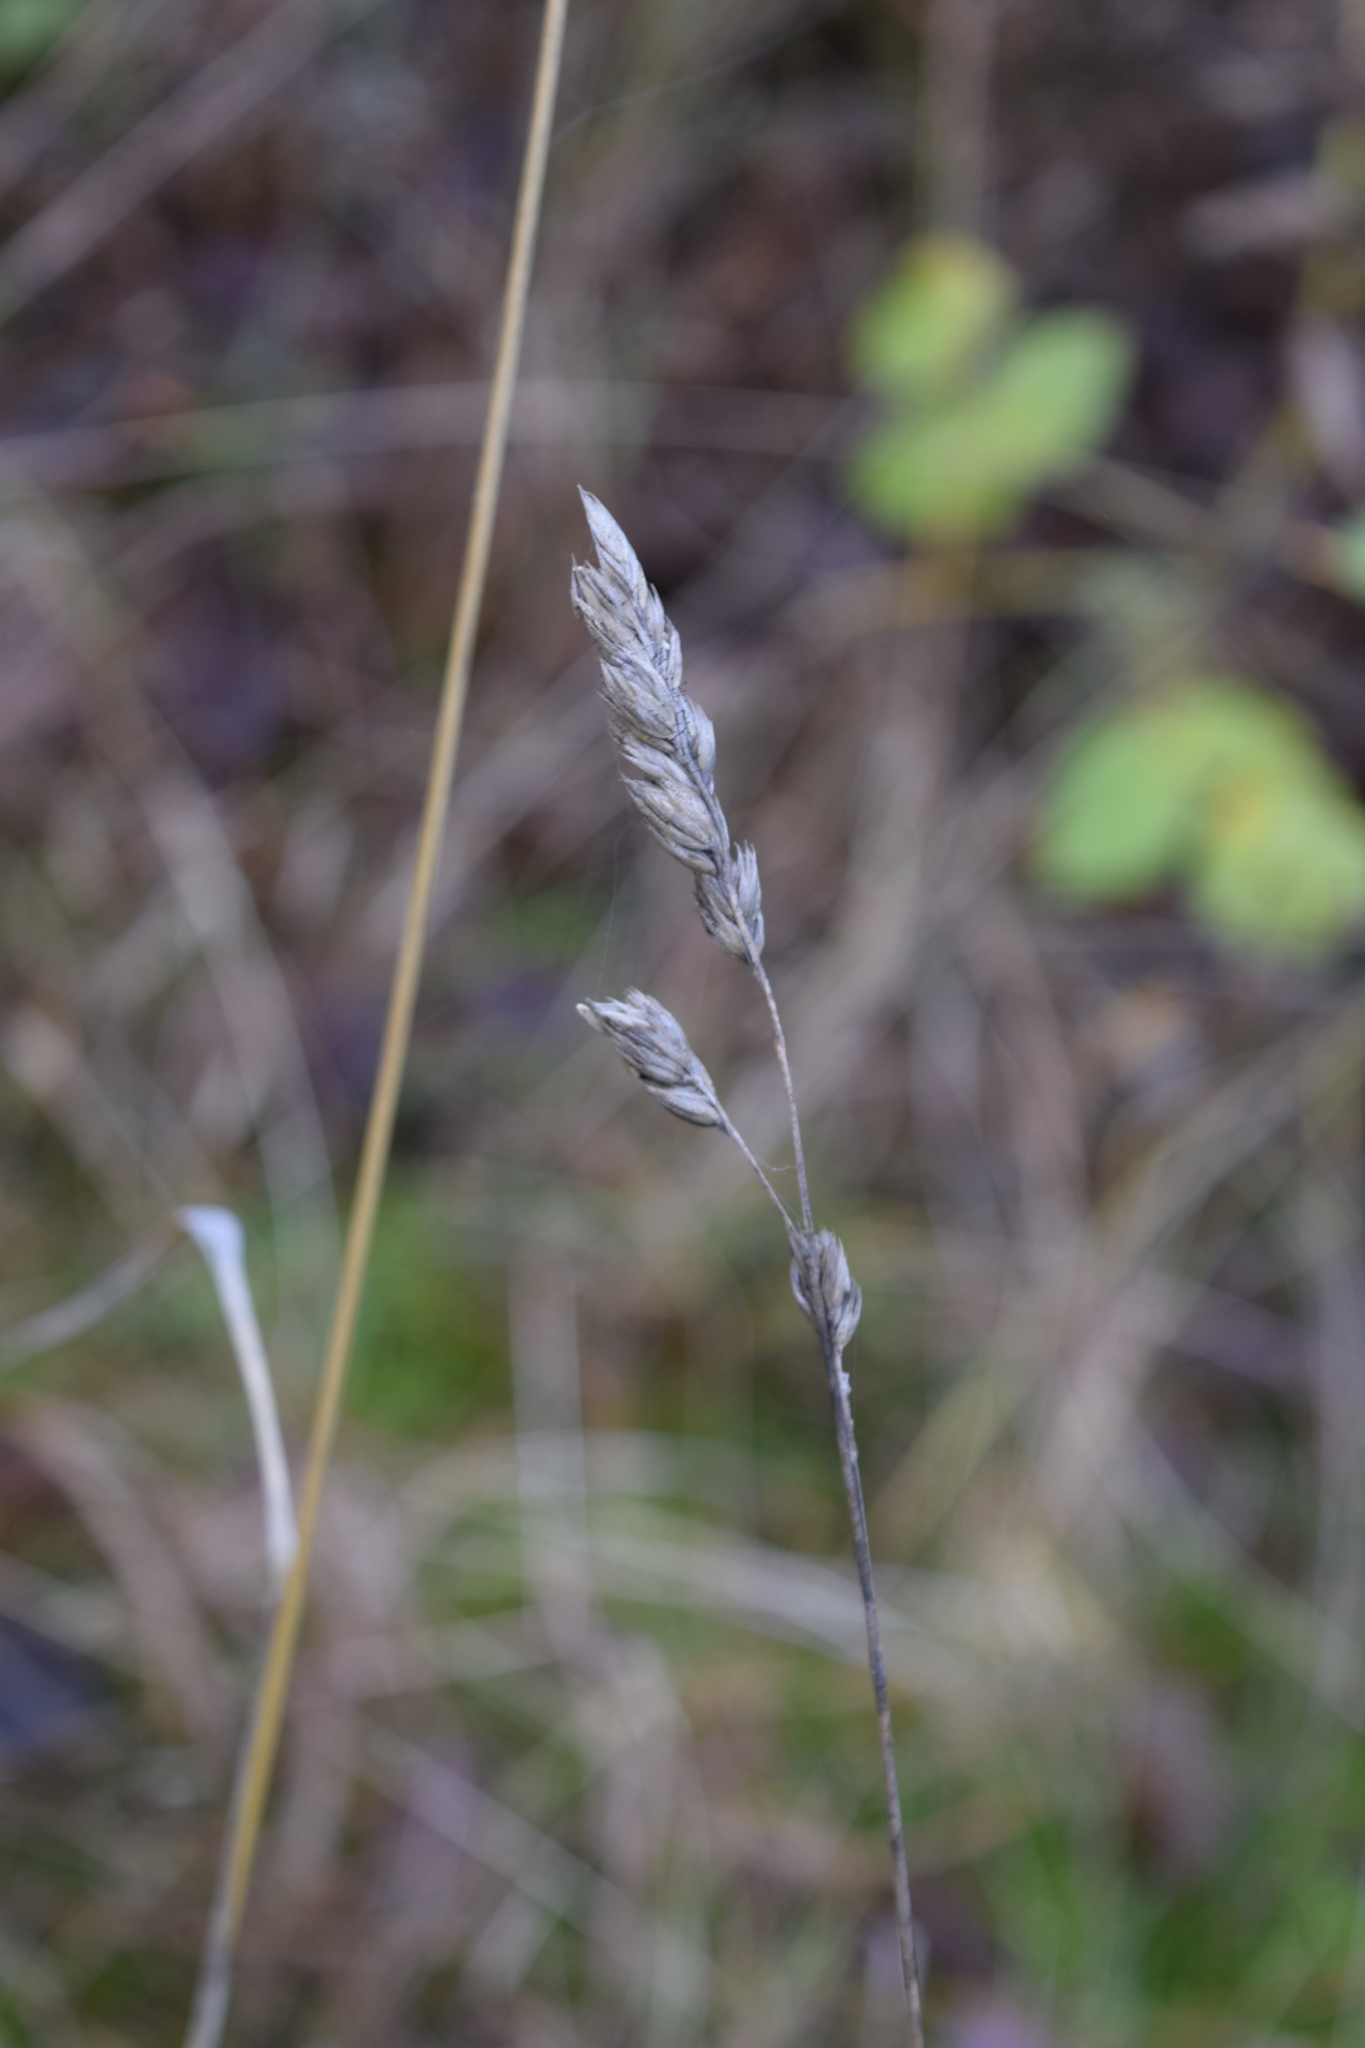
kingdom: Plantae
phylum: Tracheophyta
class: Liliopsida
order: Poales
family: Poaceae
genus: Dactylis
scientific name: Dactylis glomerata
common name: Orchardgrass
